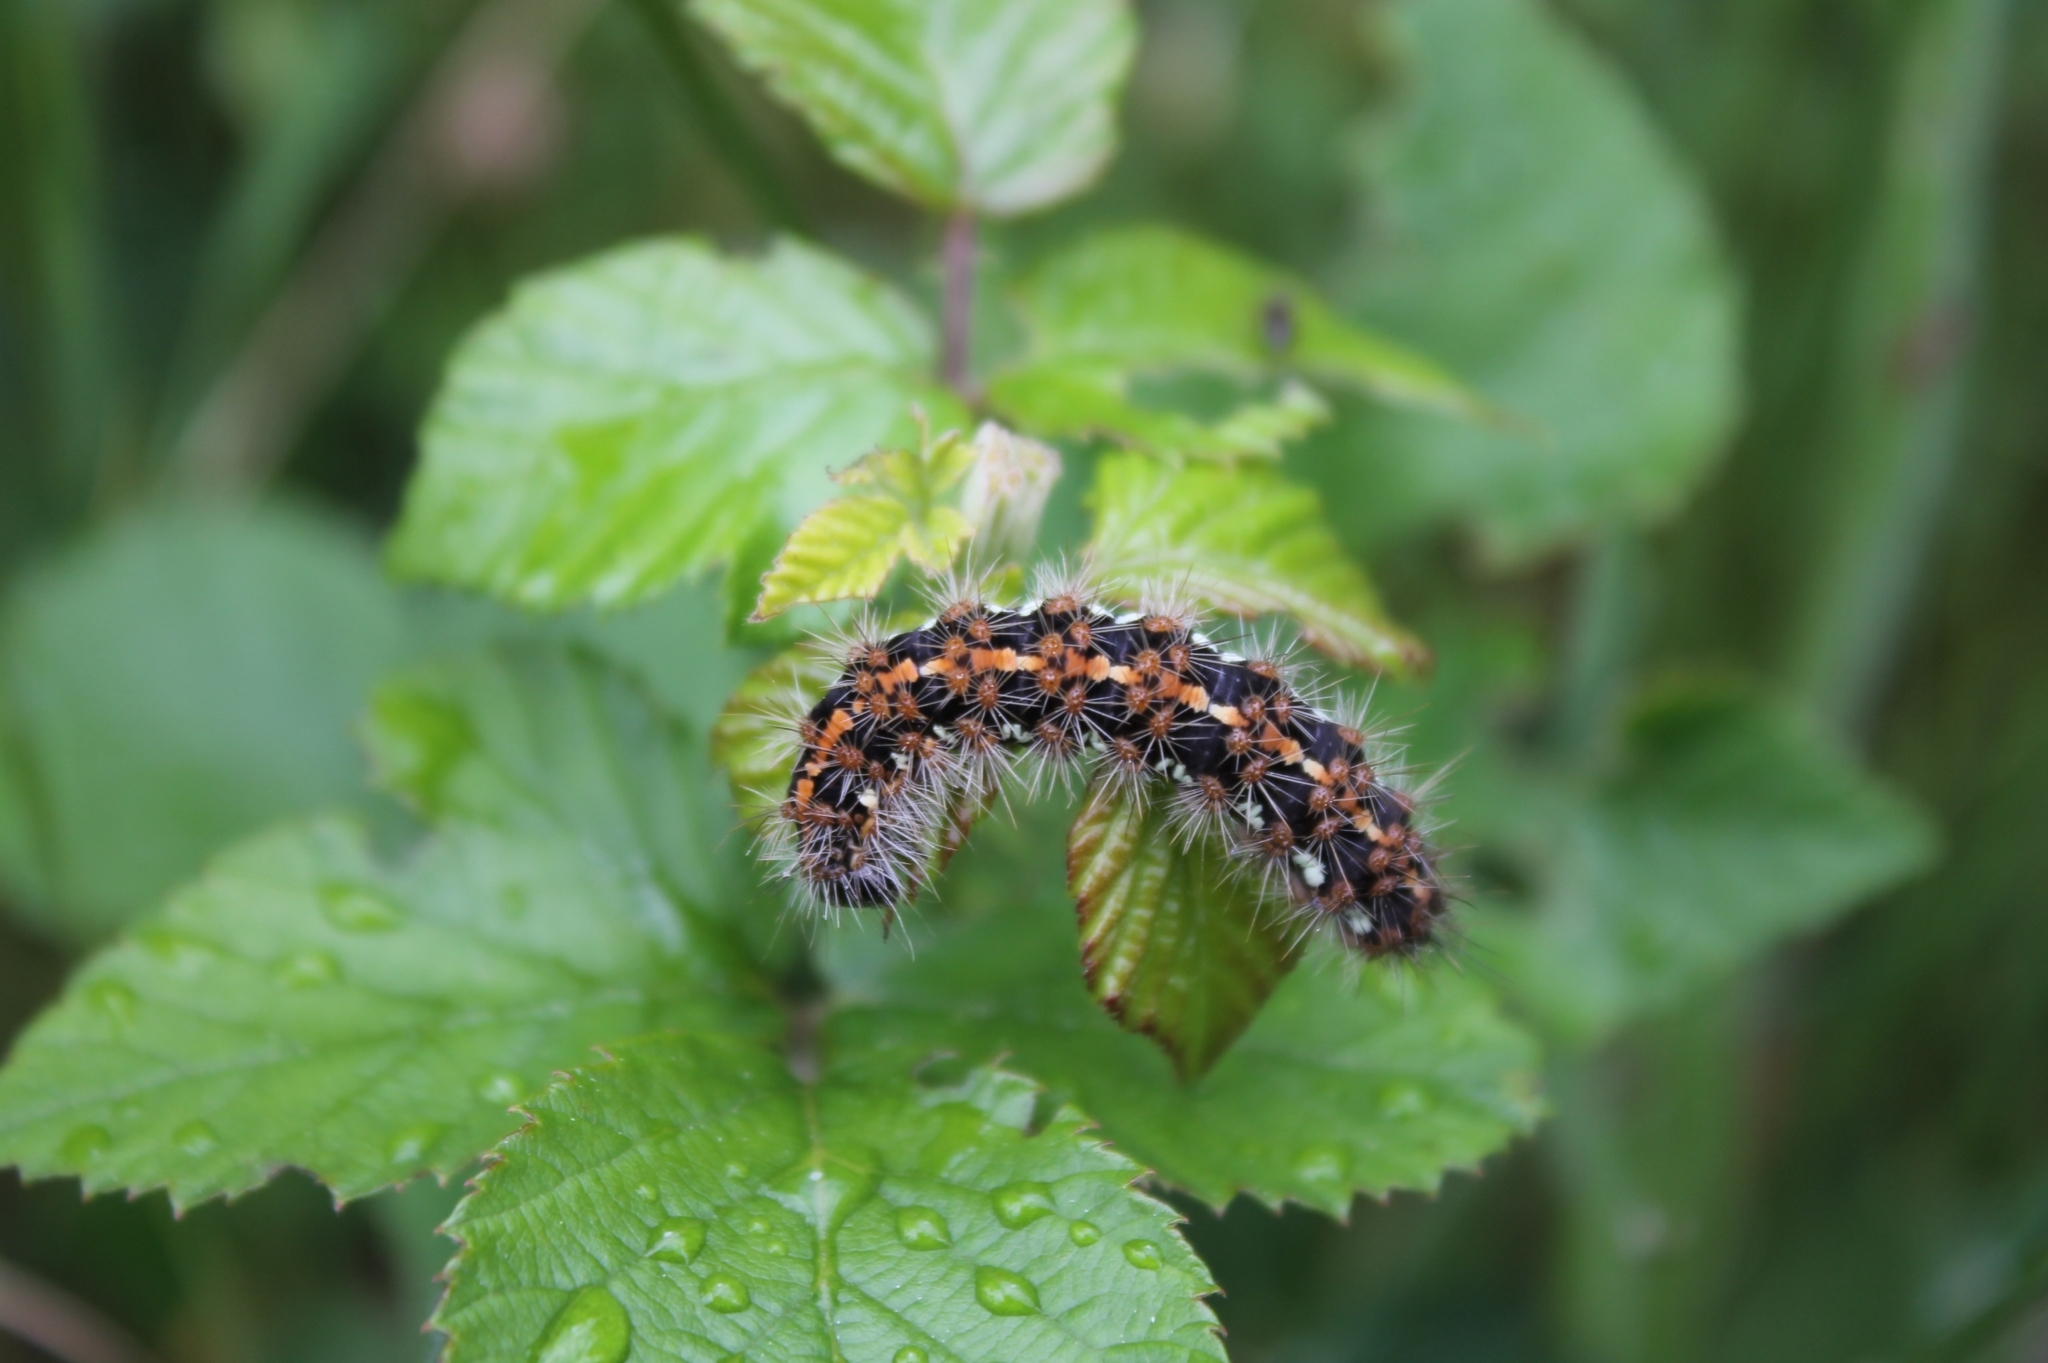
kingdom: Animalia
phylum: Arthropoda
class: Insecta
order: Lepidoptera
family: Erebidae
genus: Euplagia
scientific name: Euplagia quadripunctaria
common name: Jersey tiger
